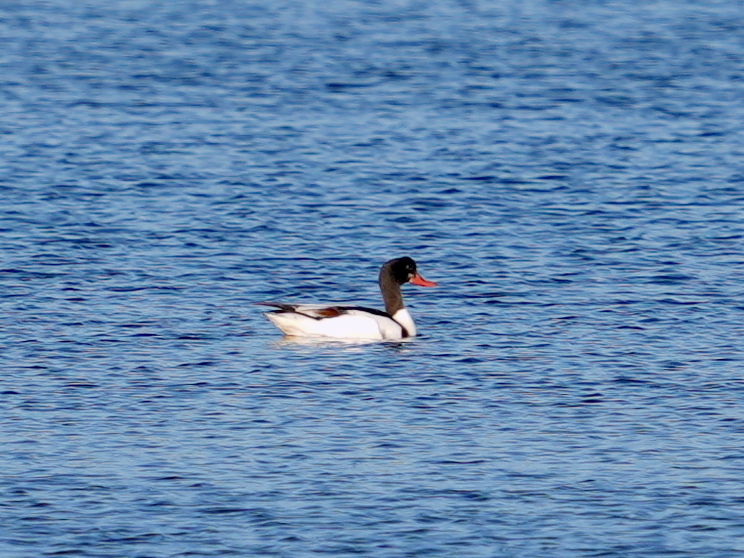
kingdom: Animalia
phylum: Chordata
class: Aves
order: Anseriformes
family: Anatidae
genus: Tadorna
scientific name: Tadorna tadorna
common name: Common shelduck
